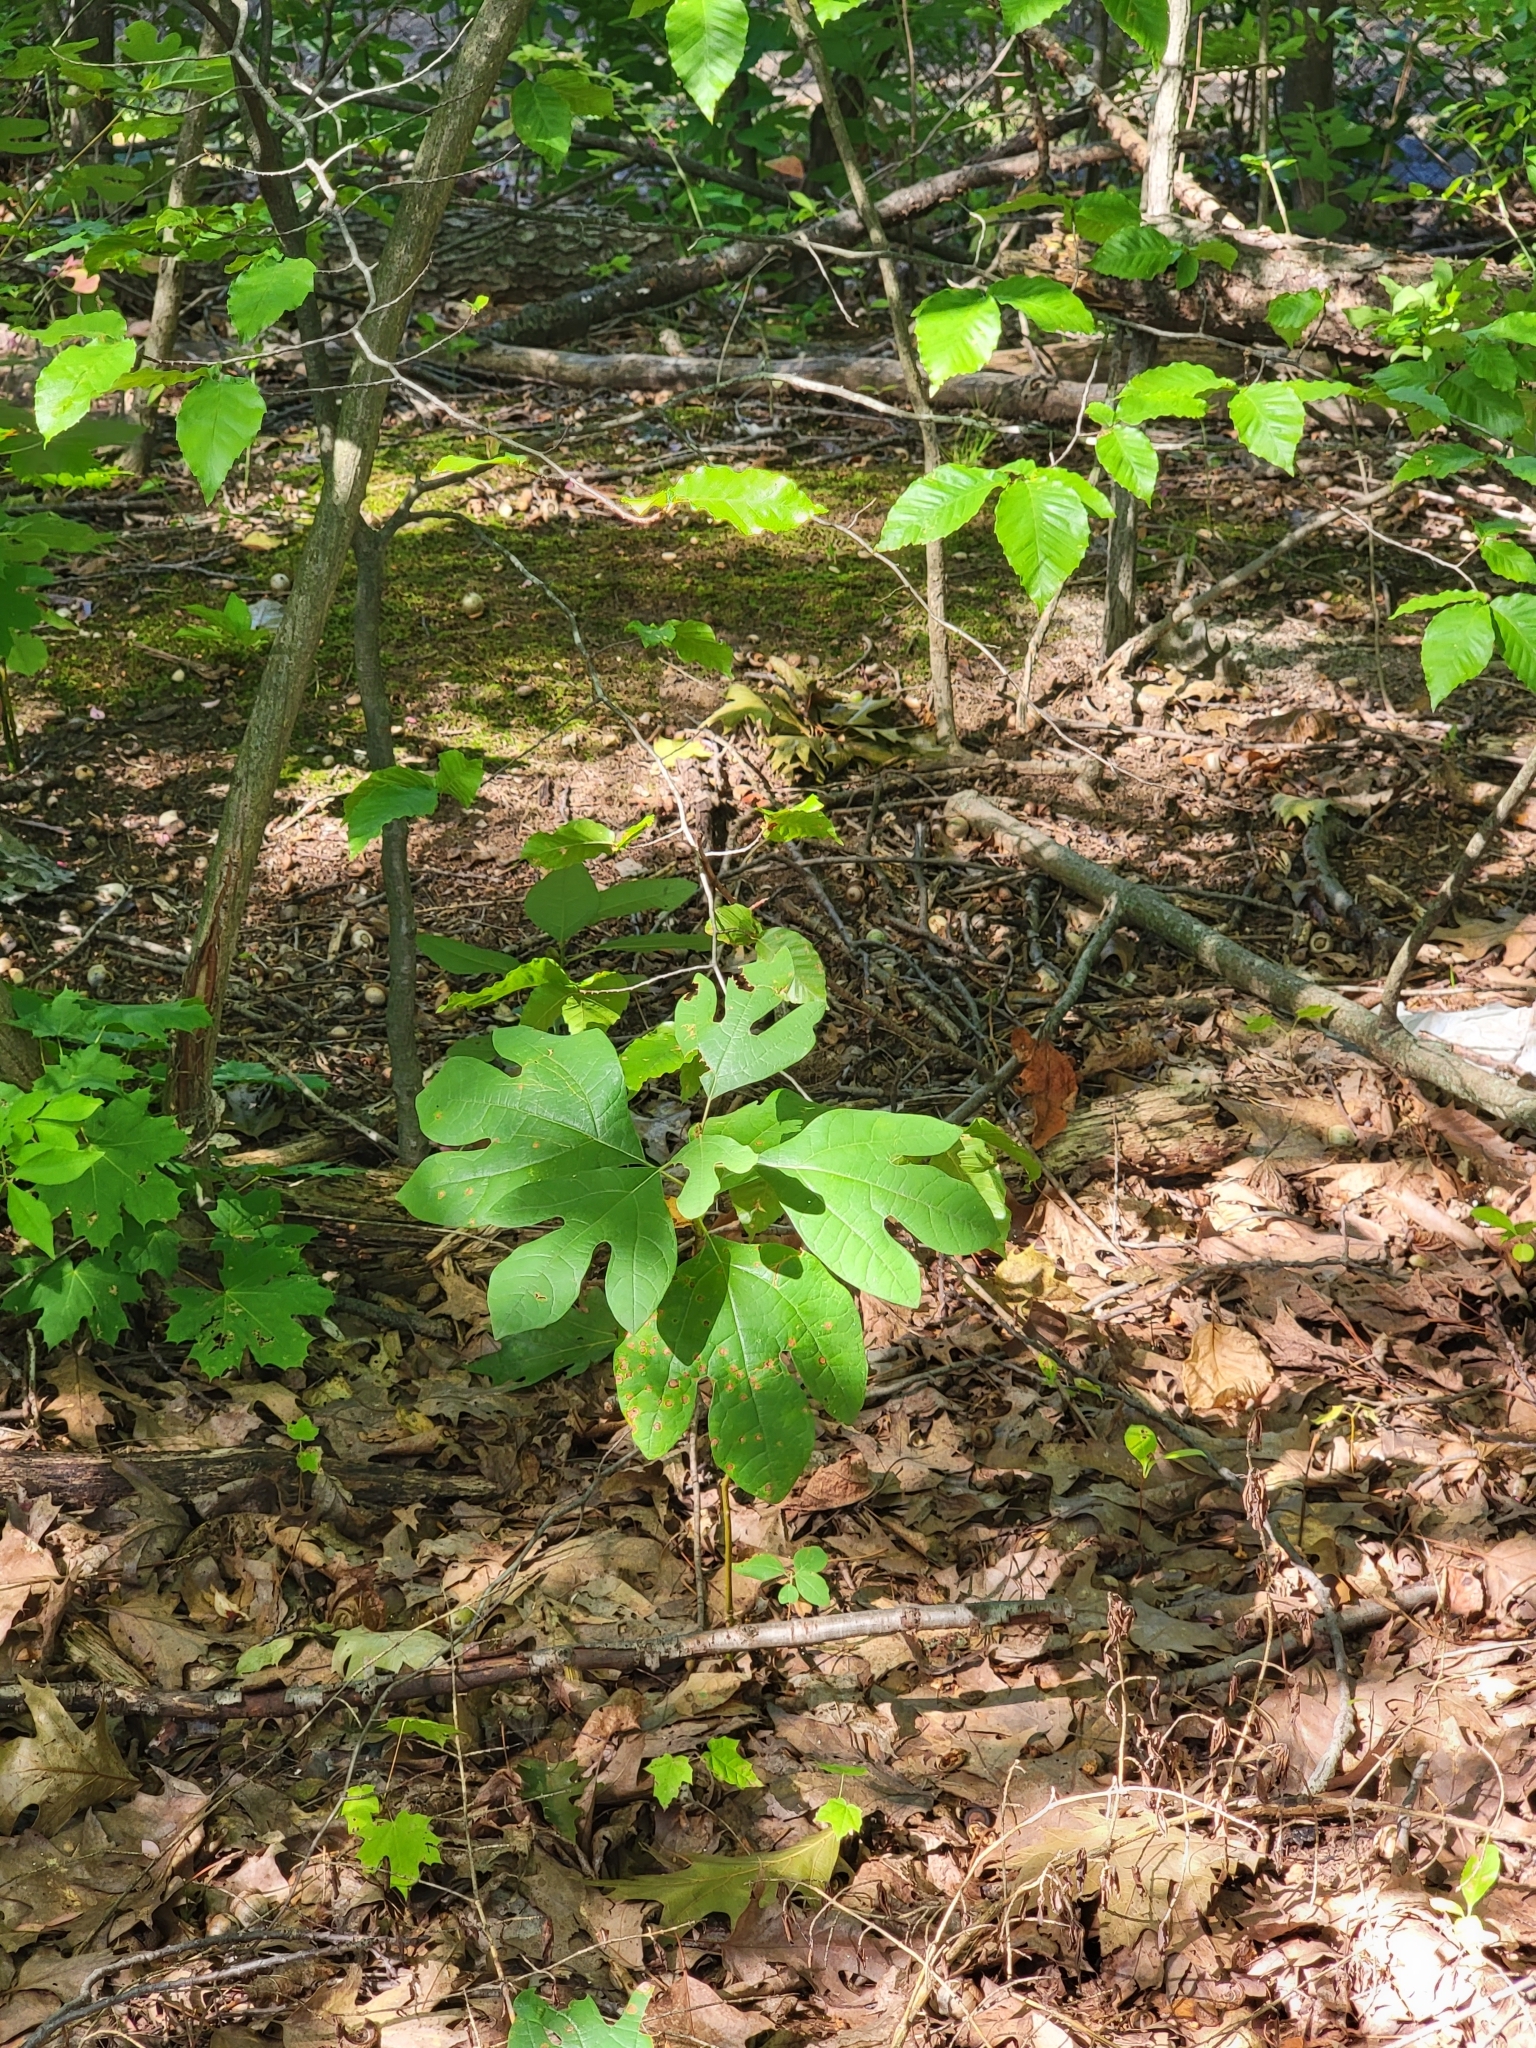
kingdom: Plantae
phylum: Tracheophyta
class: Magnoliopsida
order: Laurales
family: Lauraceae
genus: Sassafras
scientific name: Sassafras albidum
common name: Sassafras
